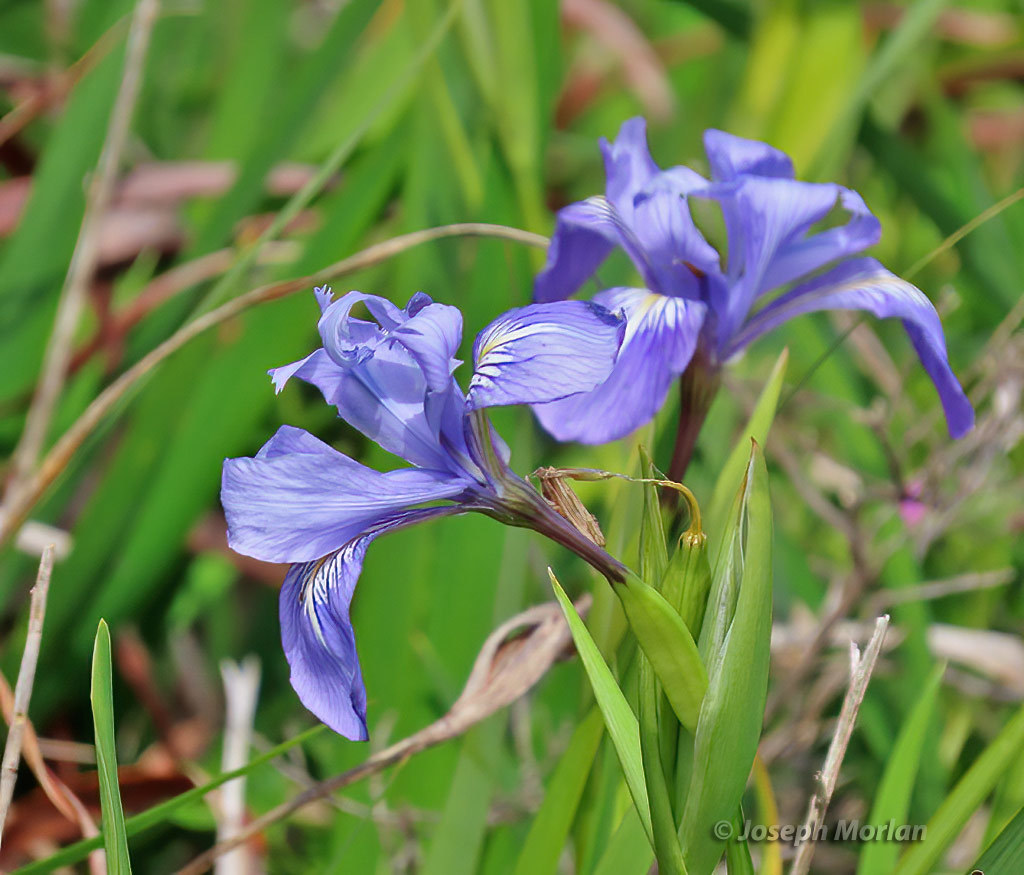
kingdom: Plantae
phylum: Tracheophyta
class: Liliopsida
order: Asparagales
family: Iridaceae
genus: Iris
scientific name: Iris douglasiana
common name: Marin iris
